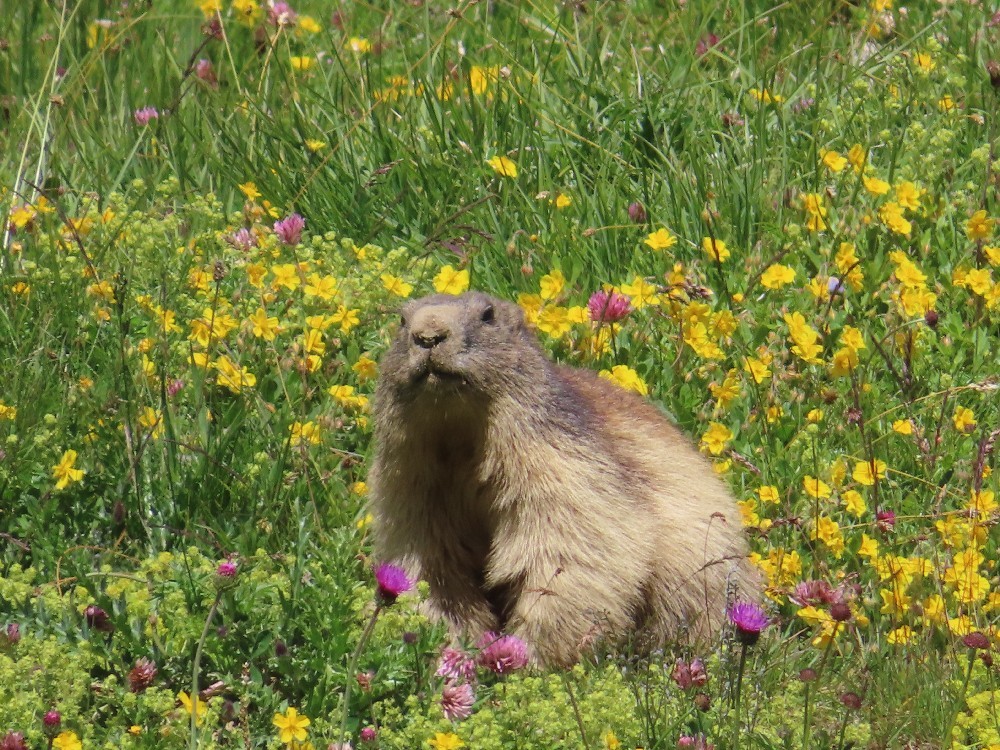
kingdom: Animalia
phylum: Chordata
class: Mammalia
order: Rodentia
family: Sciuridae
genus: Marmota
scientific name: Marmota marmota
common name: Alpine marmot
